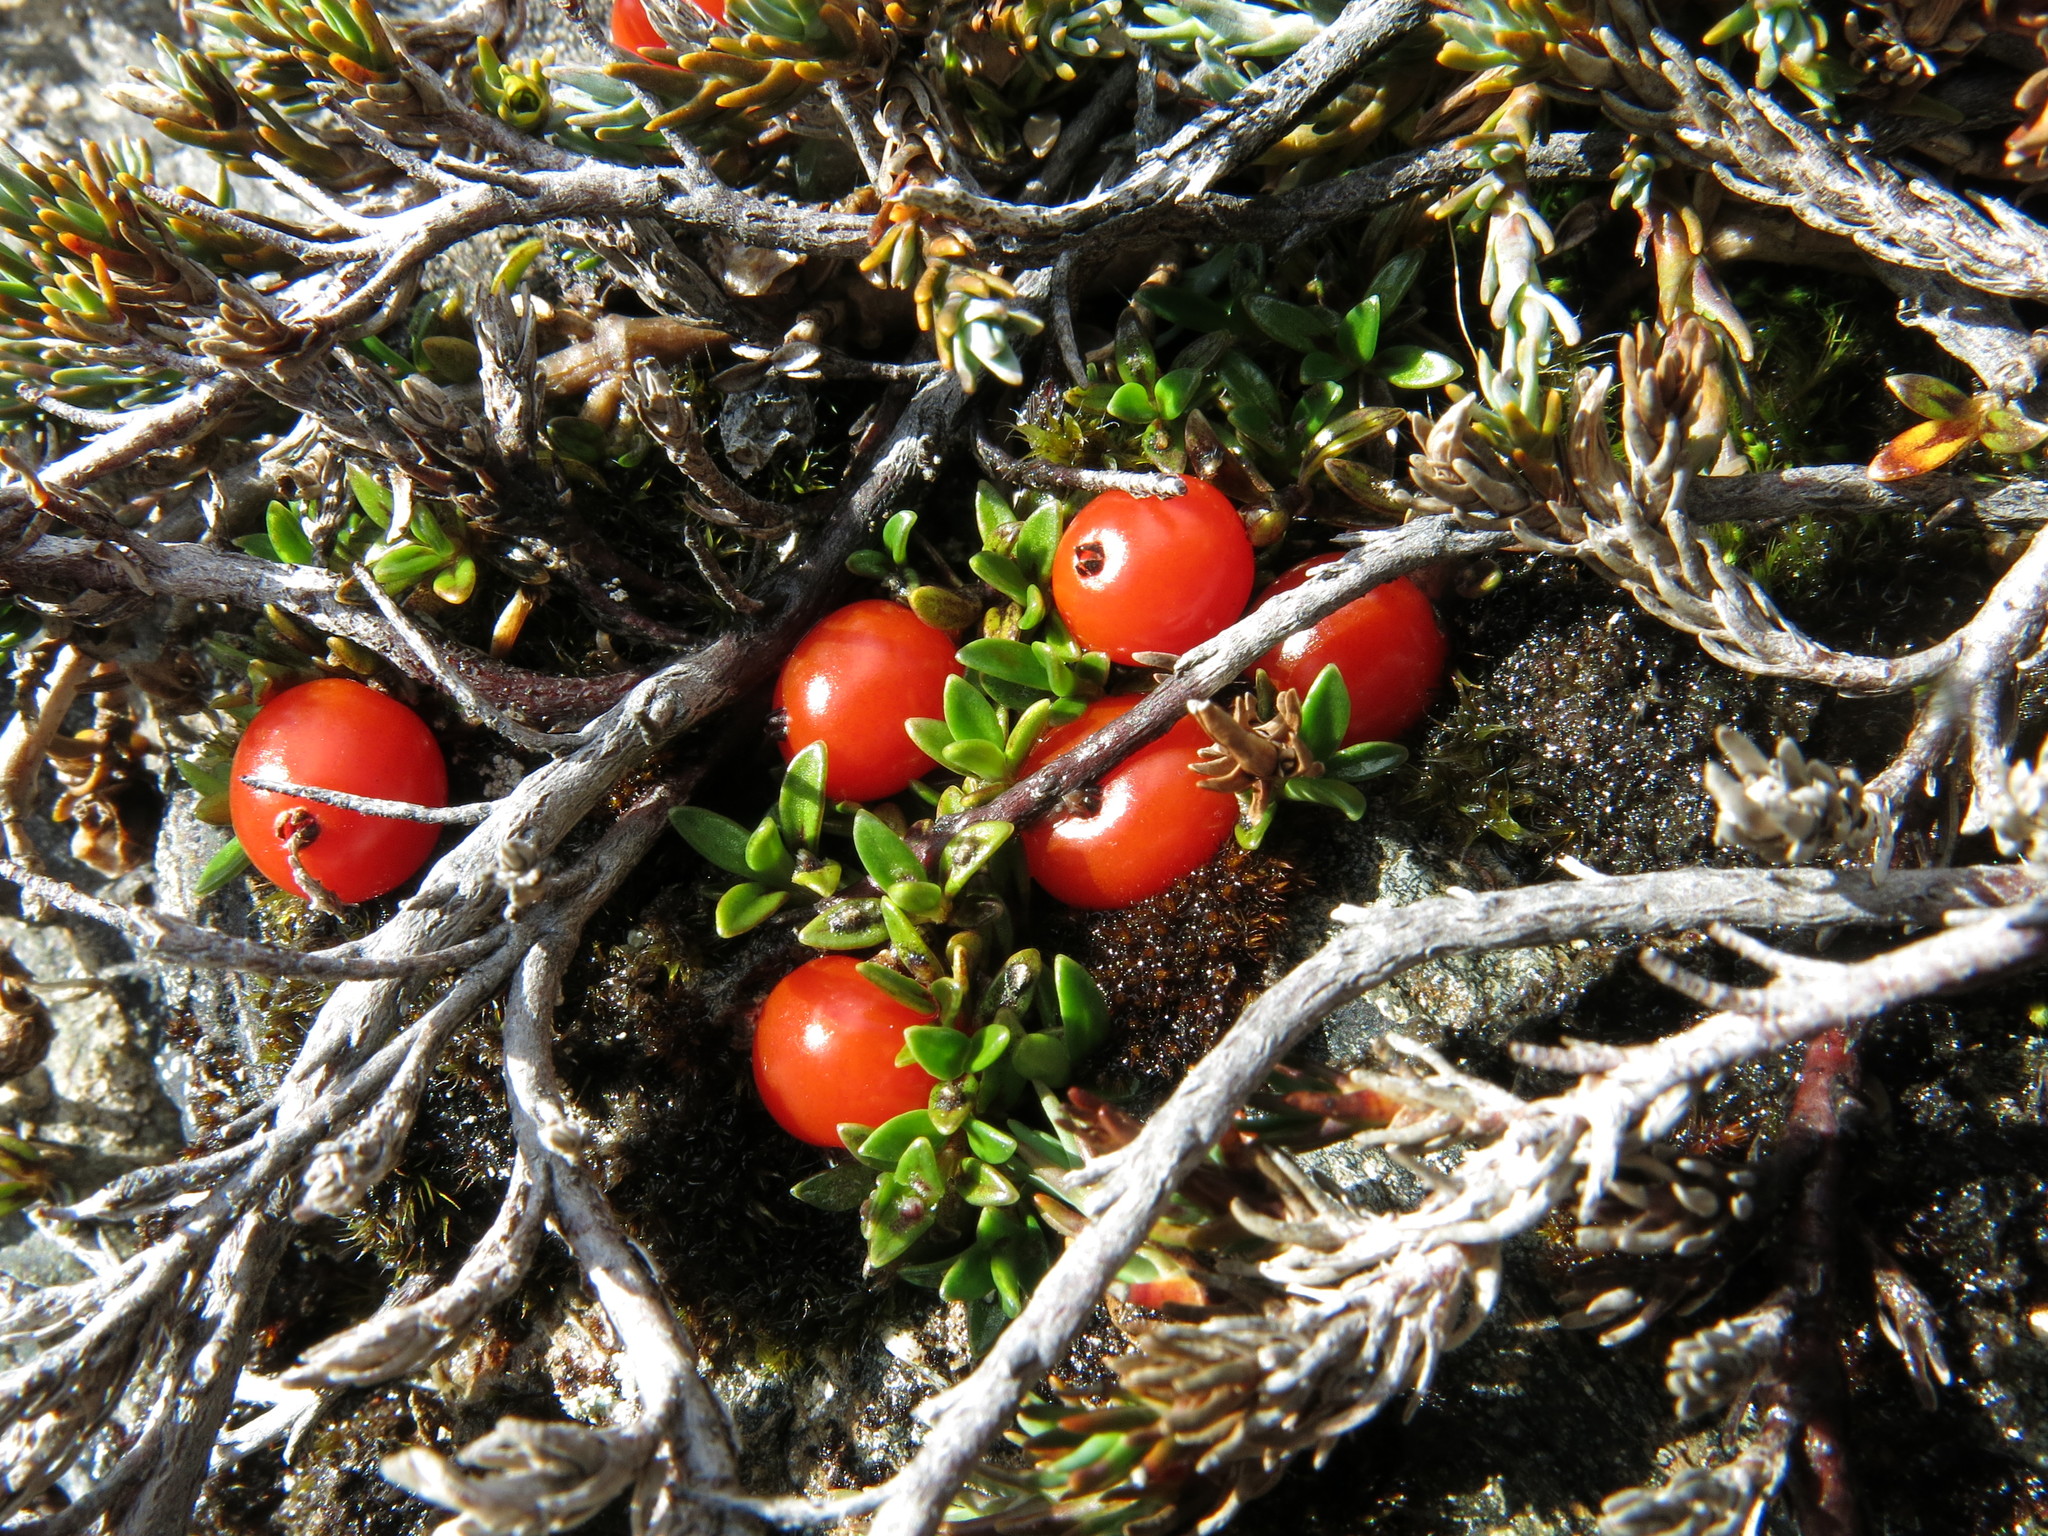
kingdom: Plantae
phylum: Tracheophyta
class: Magnoliopsida
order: Gentianales
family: Rubiaceae
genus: Coprosma
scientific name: Coprosma perpusilla
